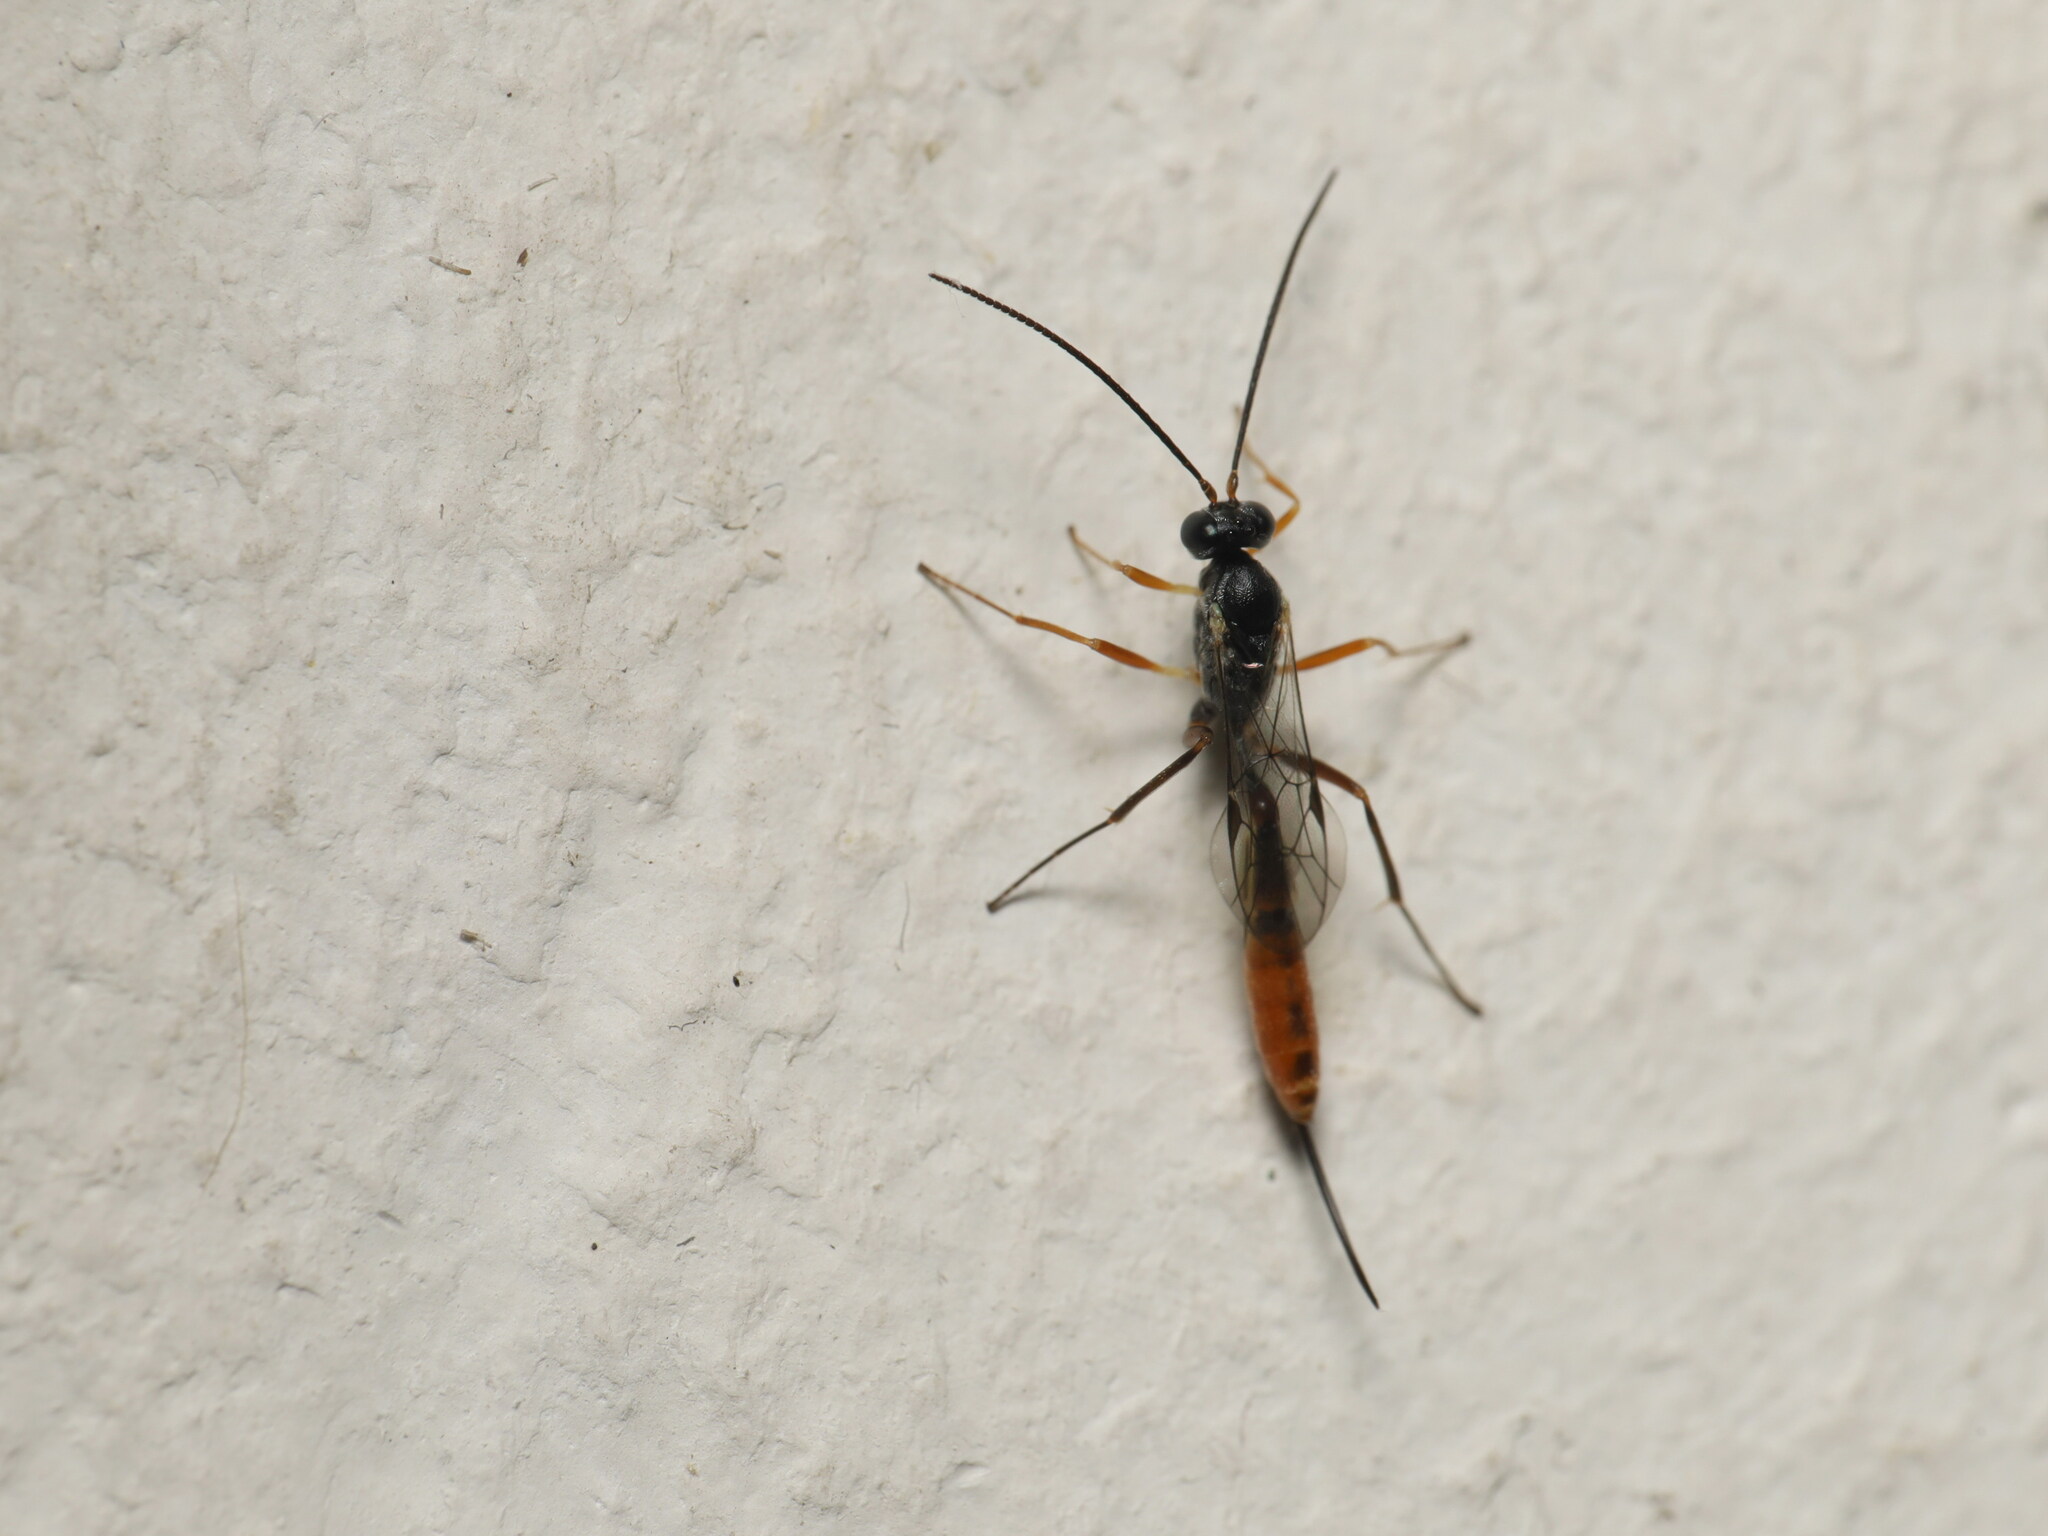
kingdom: Animalia
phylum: Arthropoda
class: Insecta
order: Hymenoptera
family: Ichneumonidae
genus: Venturia
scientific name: Venturia canescens
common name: Ichneumonid wasp
